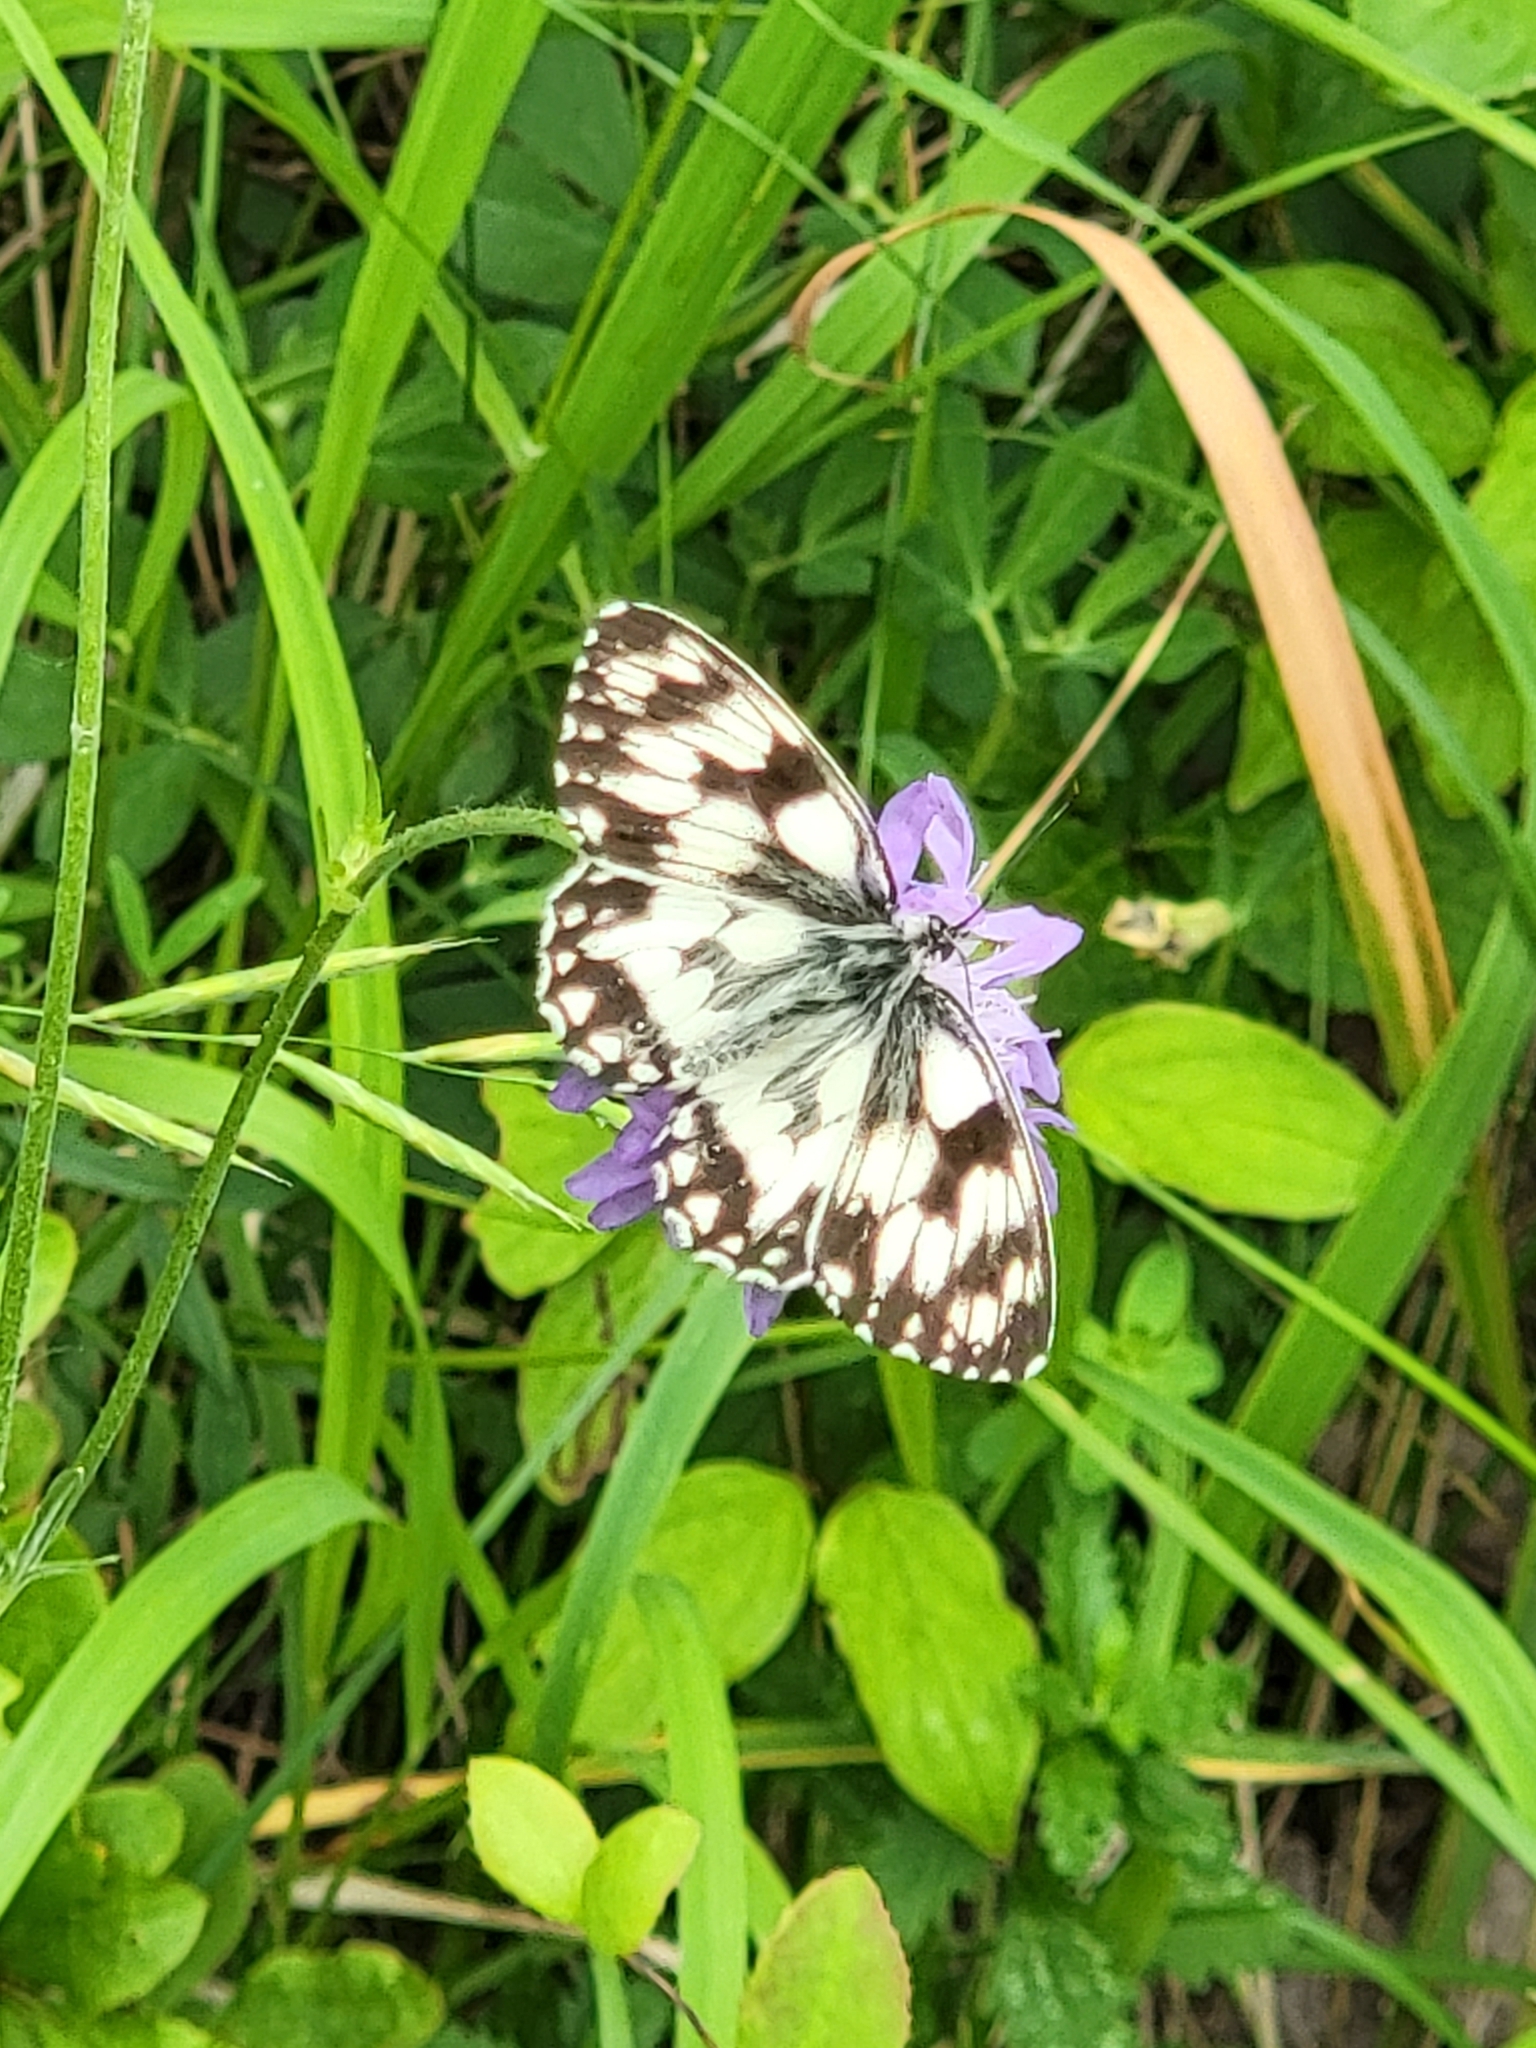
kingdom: Animalia
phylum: Arthropoda
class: Insecta
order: Lepidoptera
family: Nymphalidae
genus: Melanargia
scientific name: Melanargia galathea
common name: Marbled white
